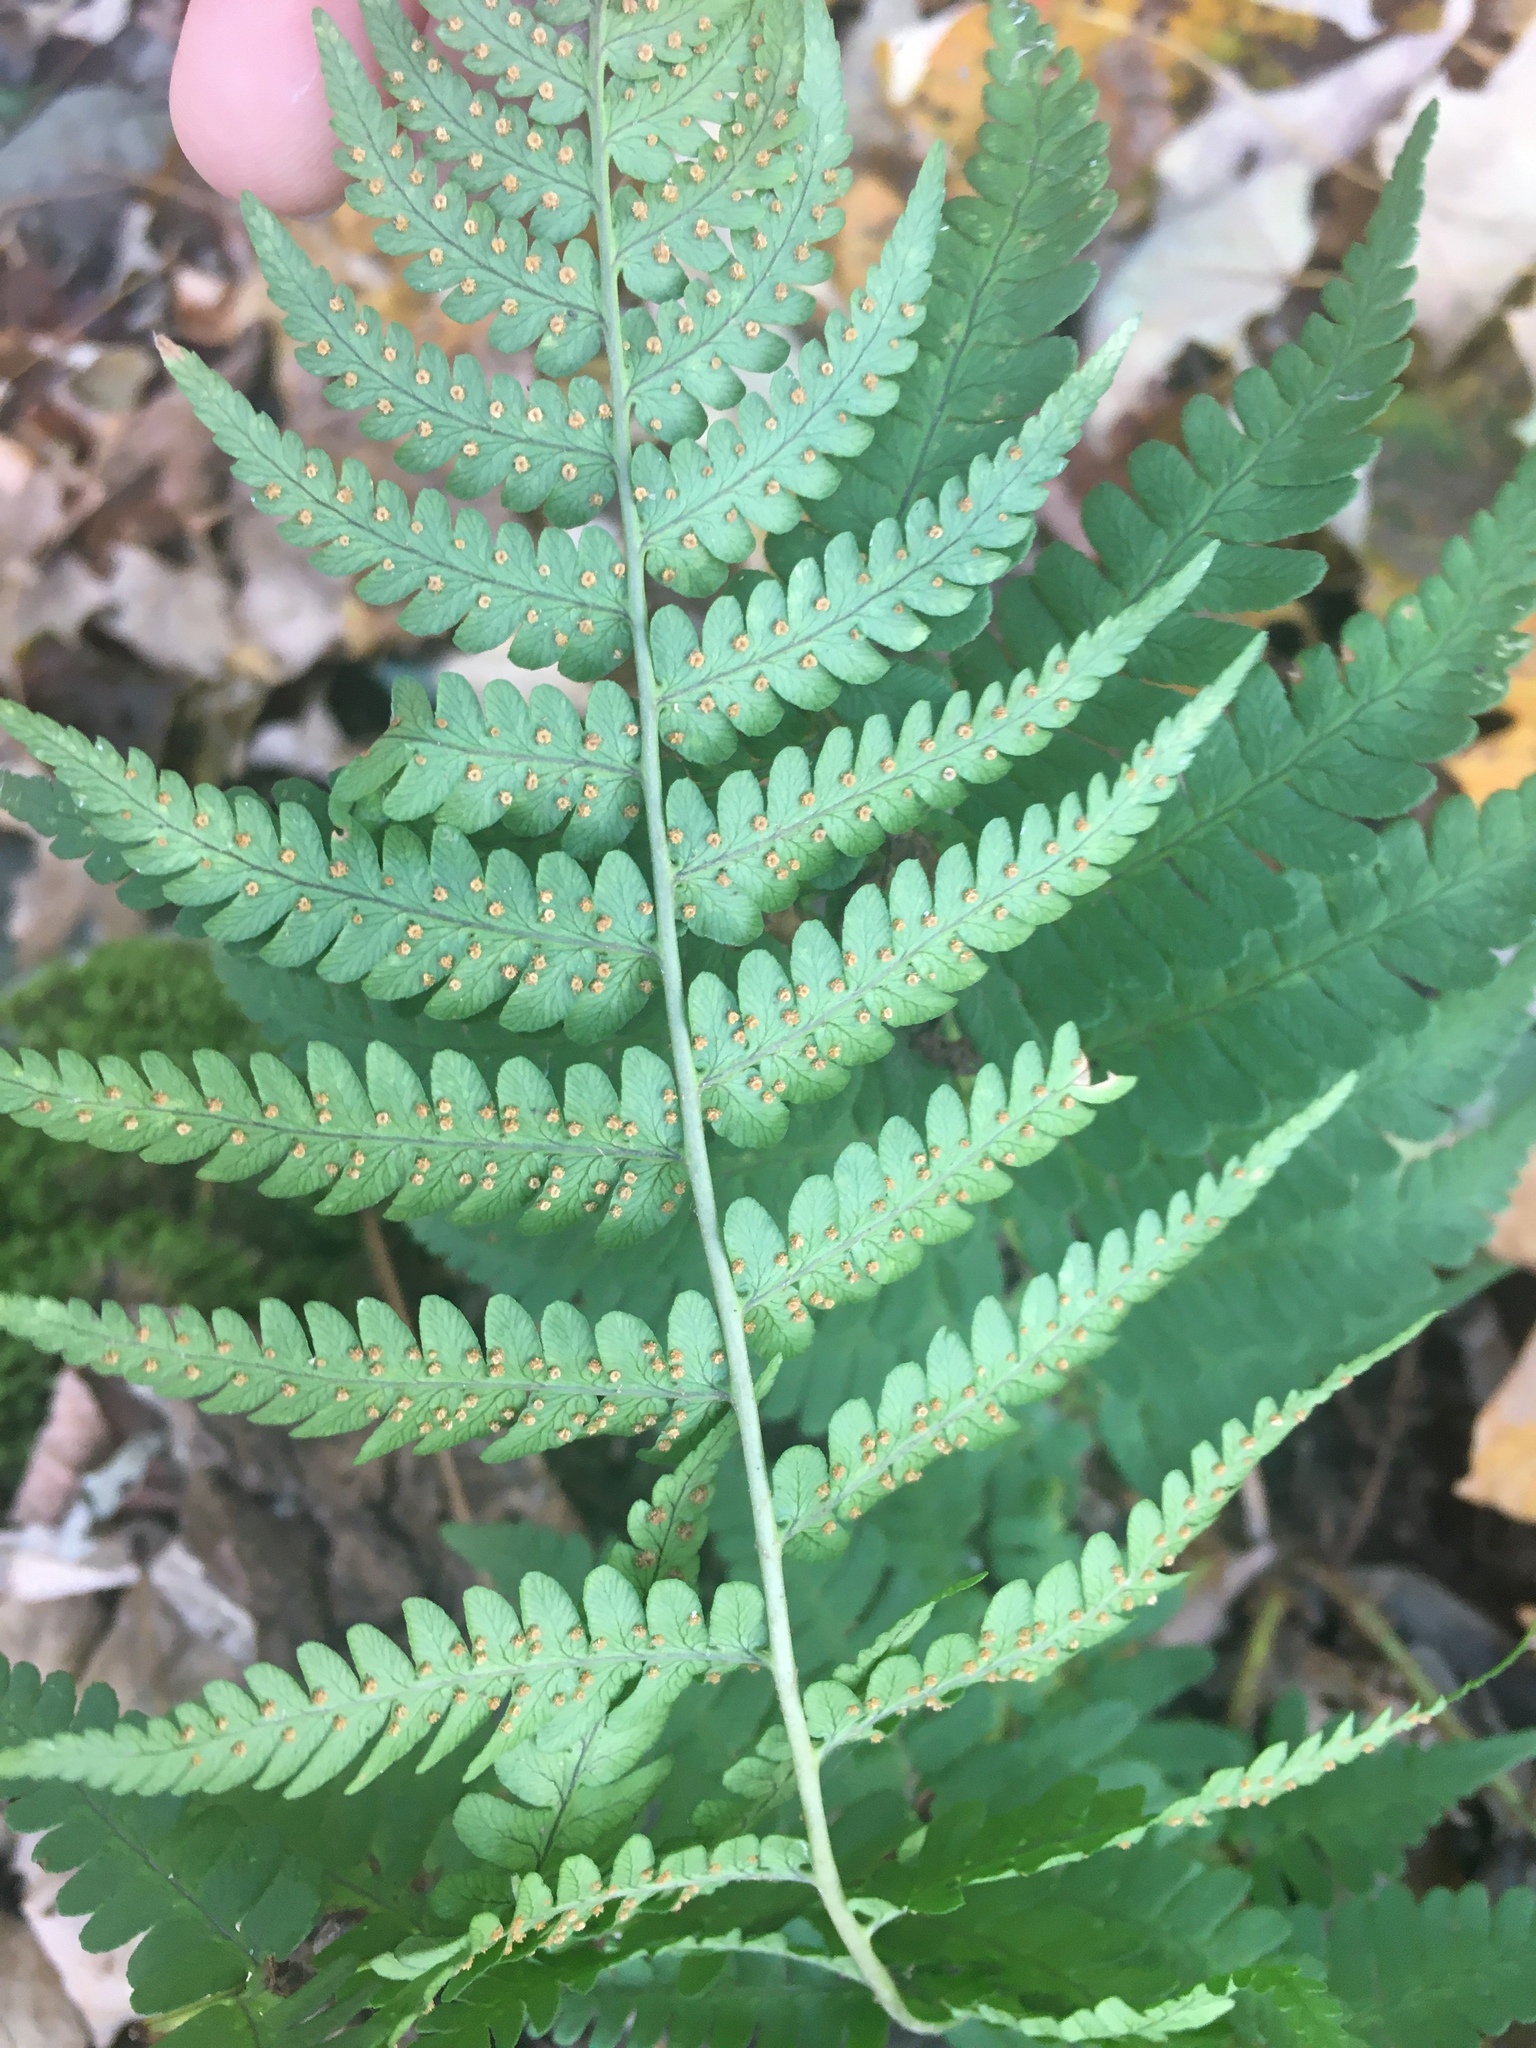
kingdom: Plantae
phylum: Tracheophyta
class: Polypodiopsida
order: Polypodiales
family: Dryopteridaceae
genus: Dryopteris
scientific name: Dryopteris marginalis
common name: Marginal wood fern
